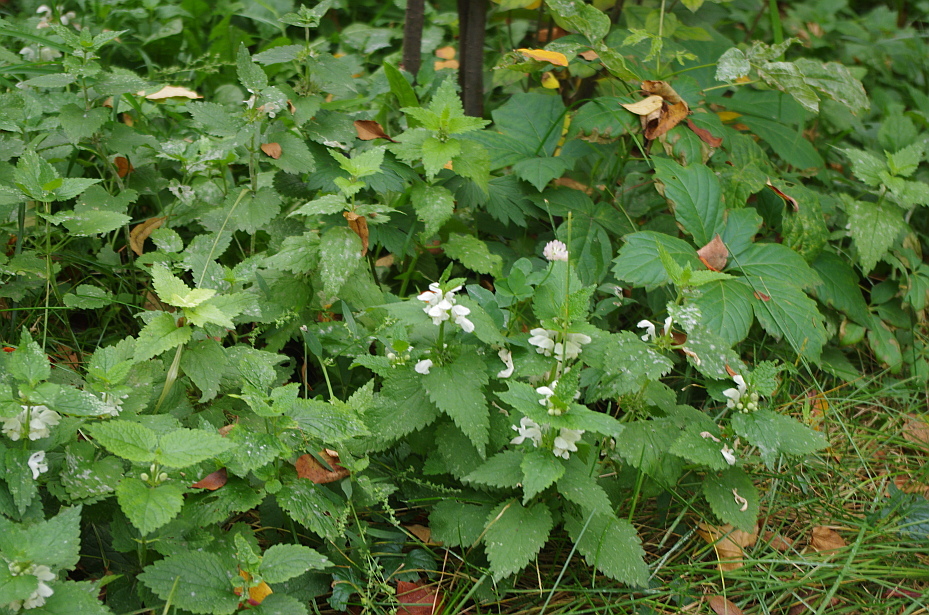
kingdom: Plantae
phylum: Tracheophyta
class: Magnoliopsida
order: Lamiales
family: Lamiaceae
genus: Lamium
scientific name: Lamium album
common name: White dead-nettle
